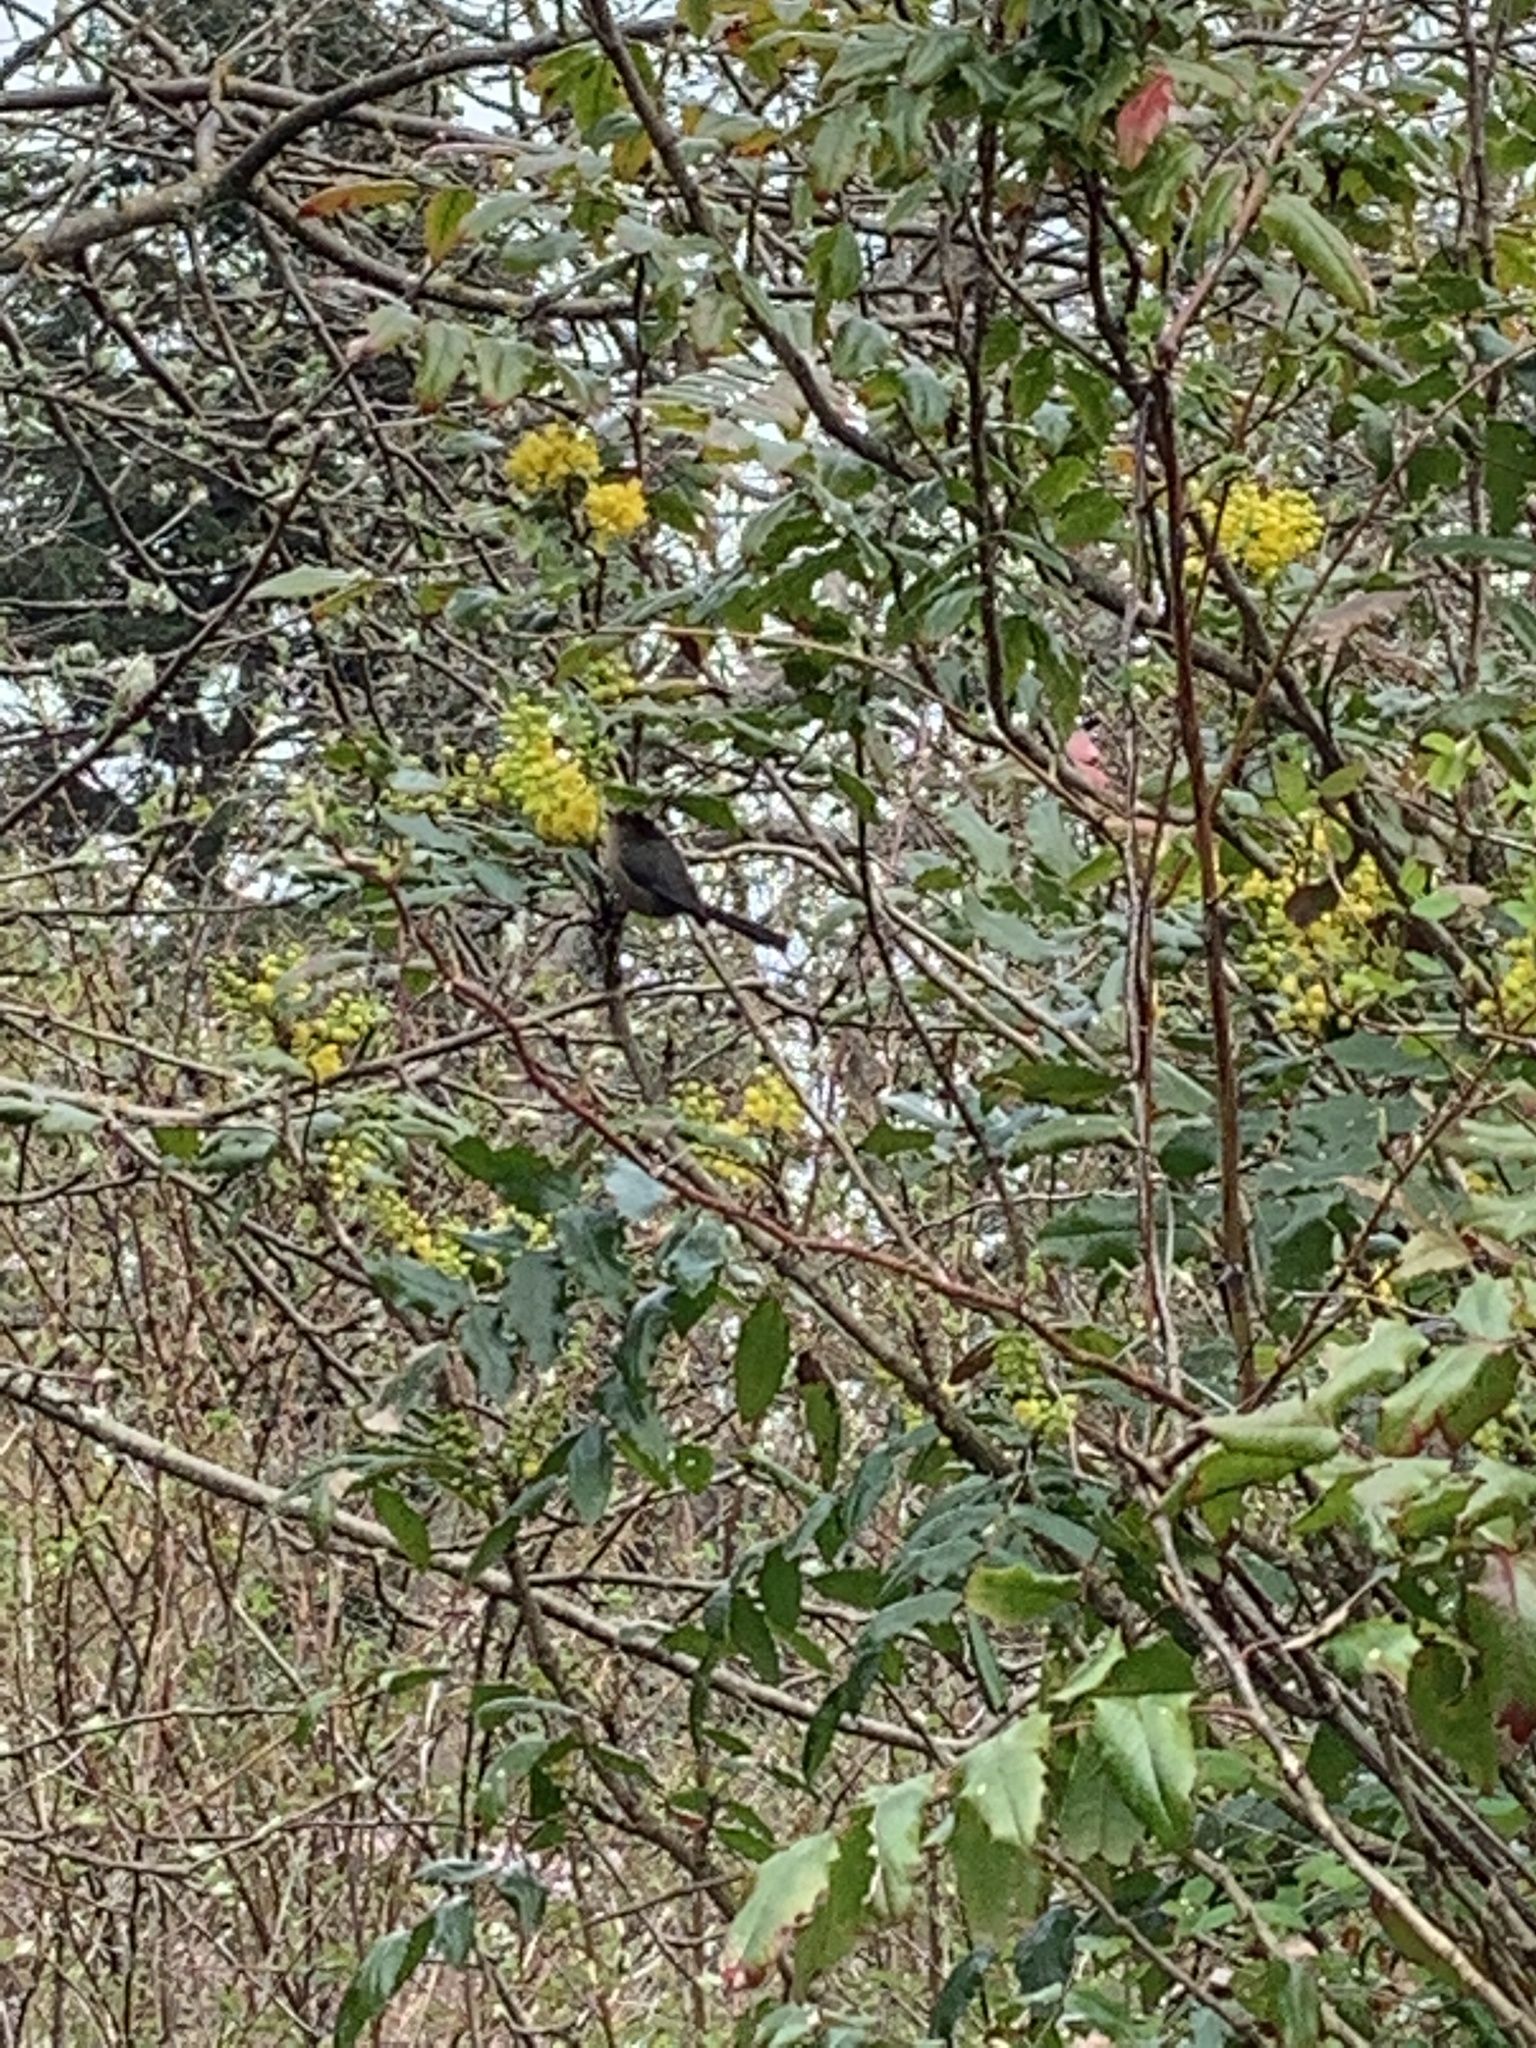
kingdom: Animalia
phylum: Chordata
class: Aves
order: Passeriformes
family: Aegithalidae
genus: Psaltriparus
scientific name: Psaltriparus minimus
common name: American bushtit
